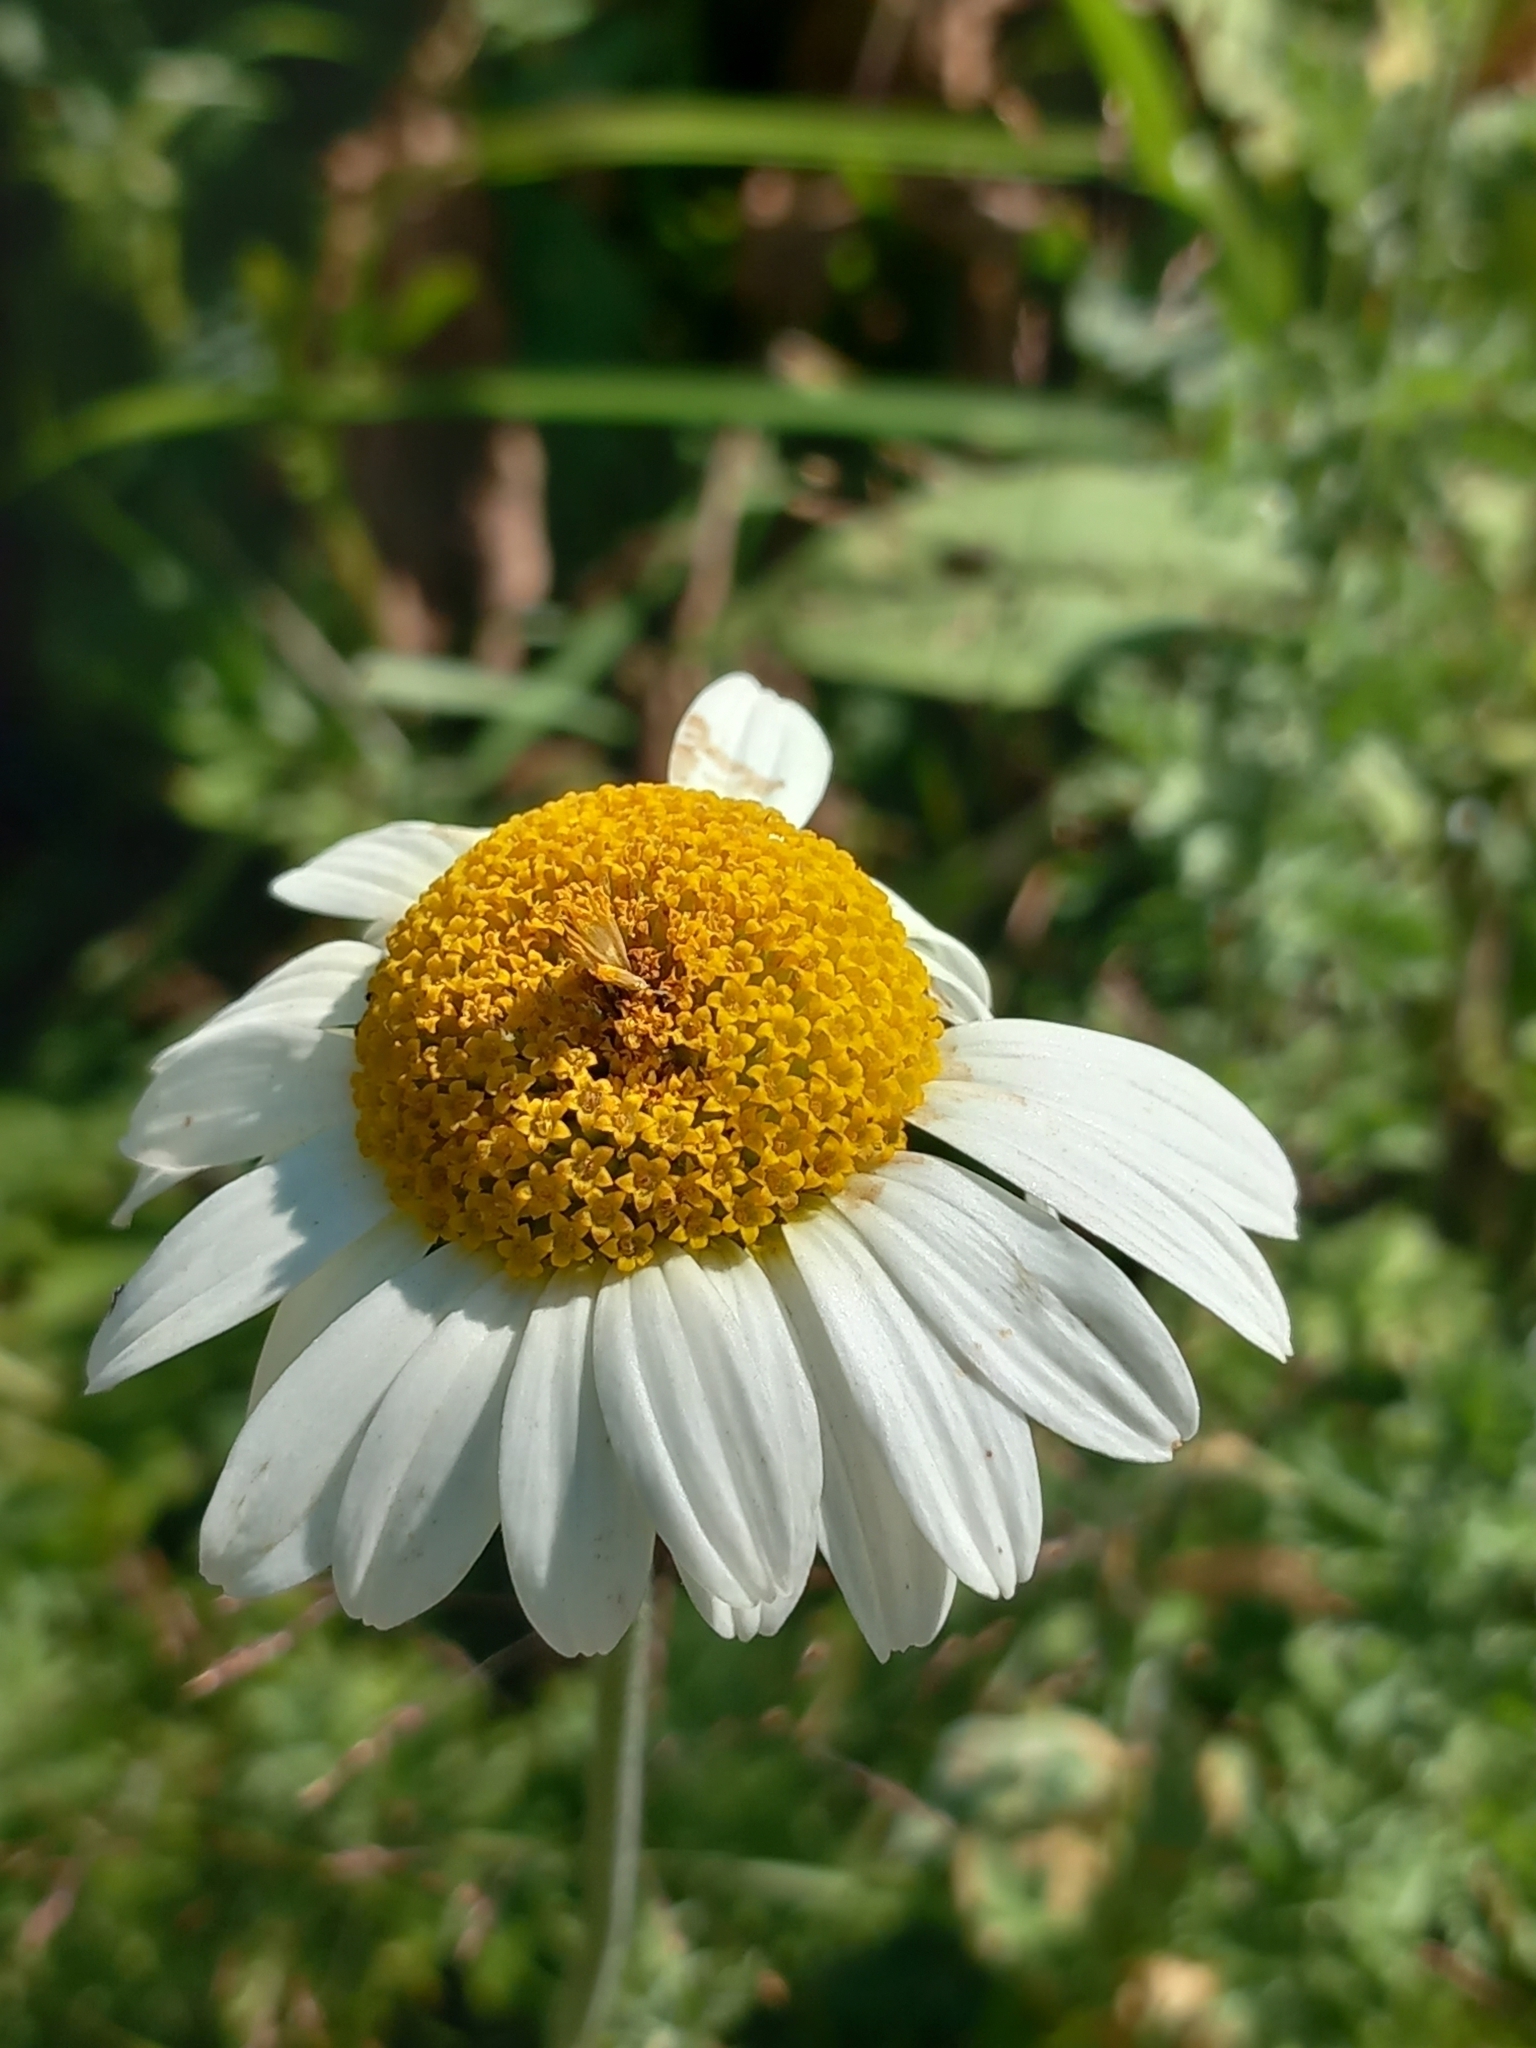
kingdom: Plantae
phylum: Tracheophyta
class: Magnoliopsida
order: Asterales
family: Asteraceae
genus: Cota
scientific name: Cota melanoloma
